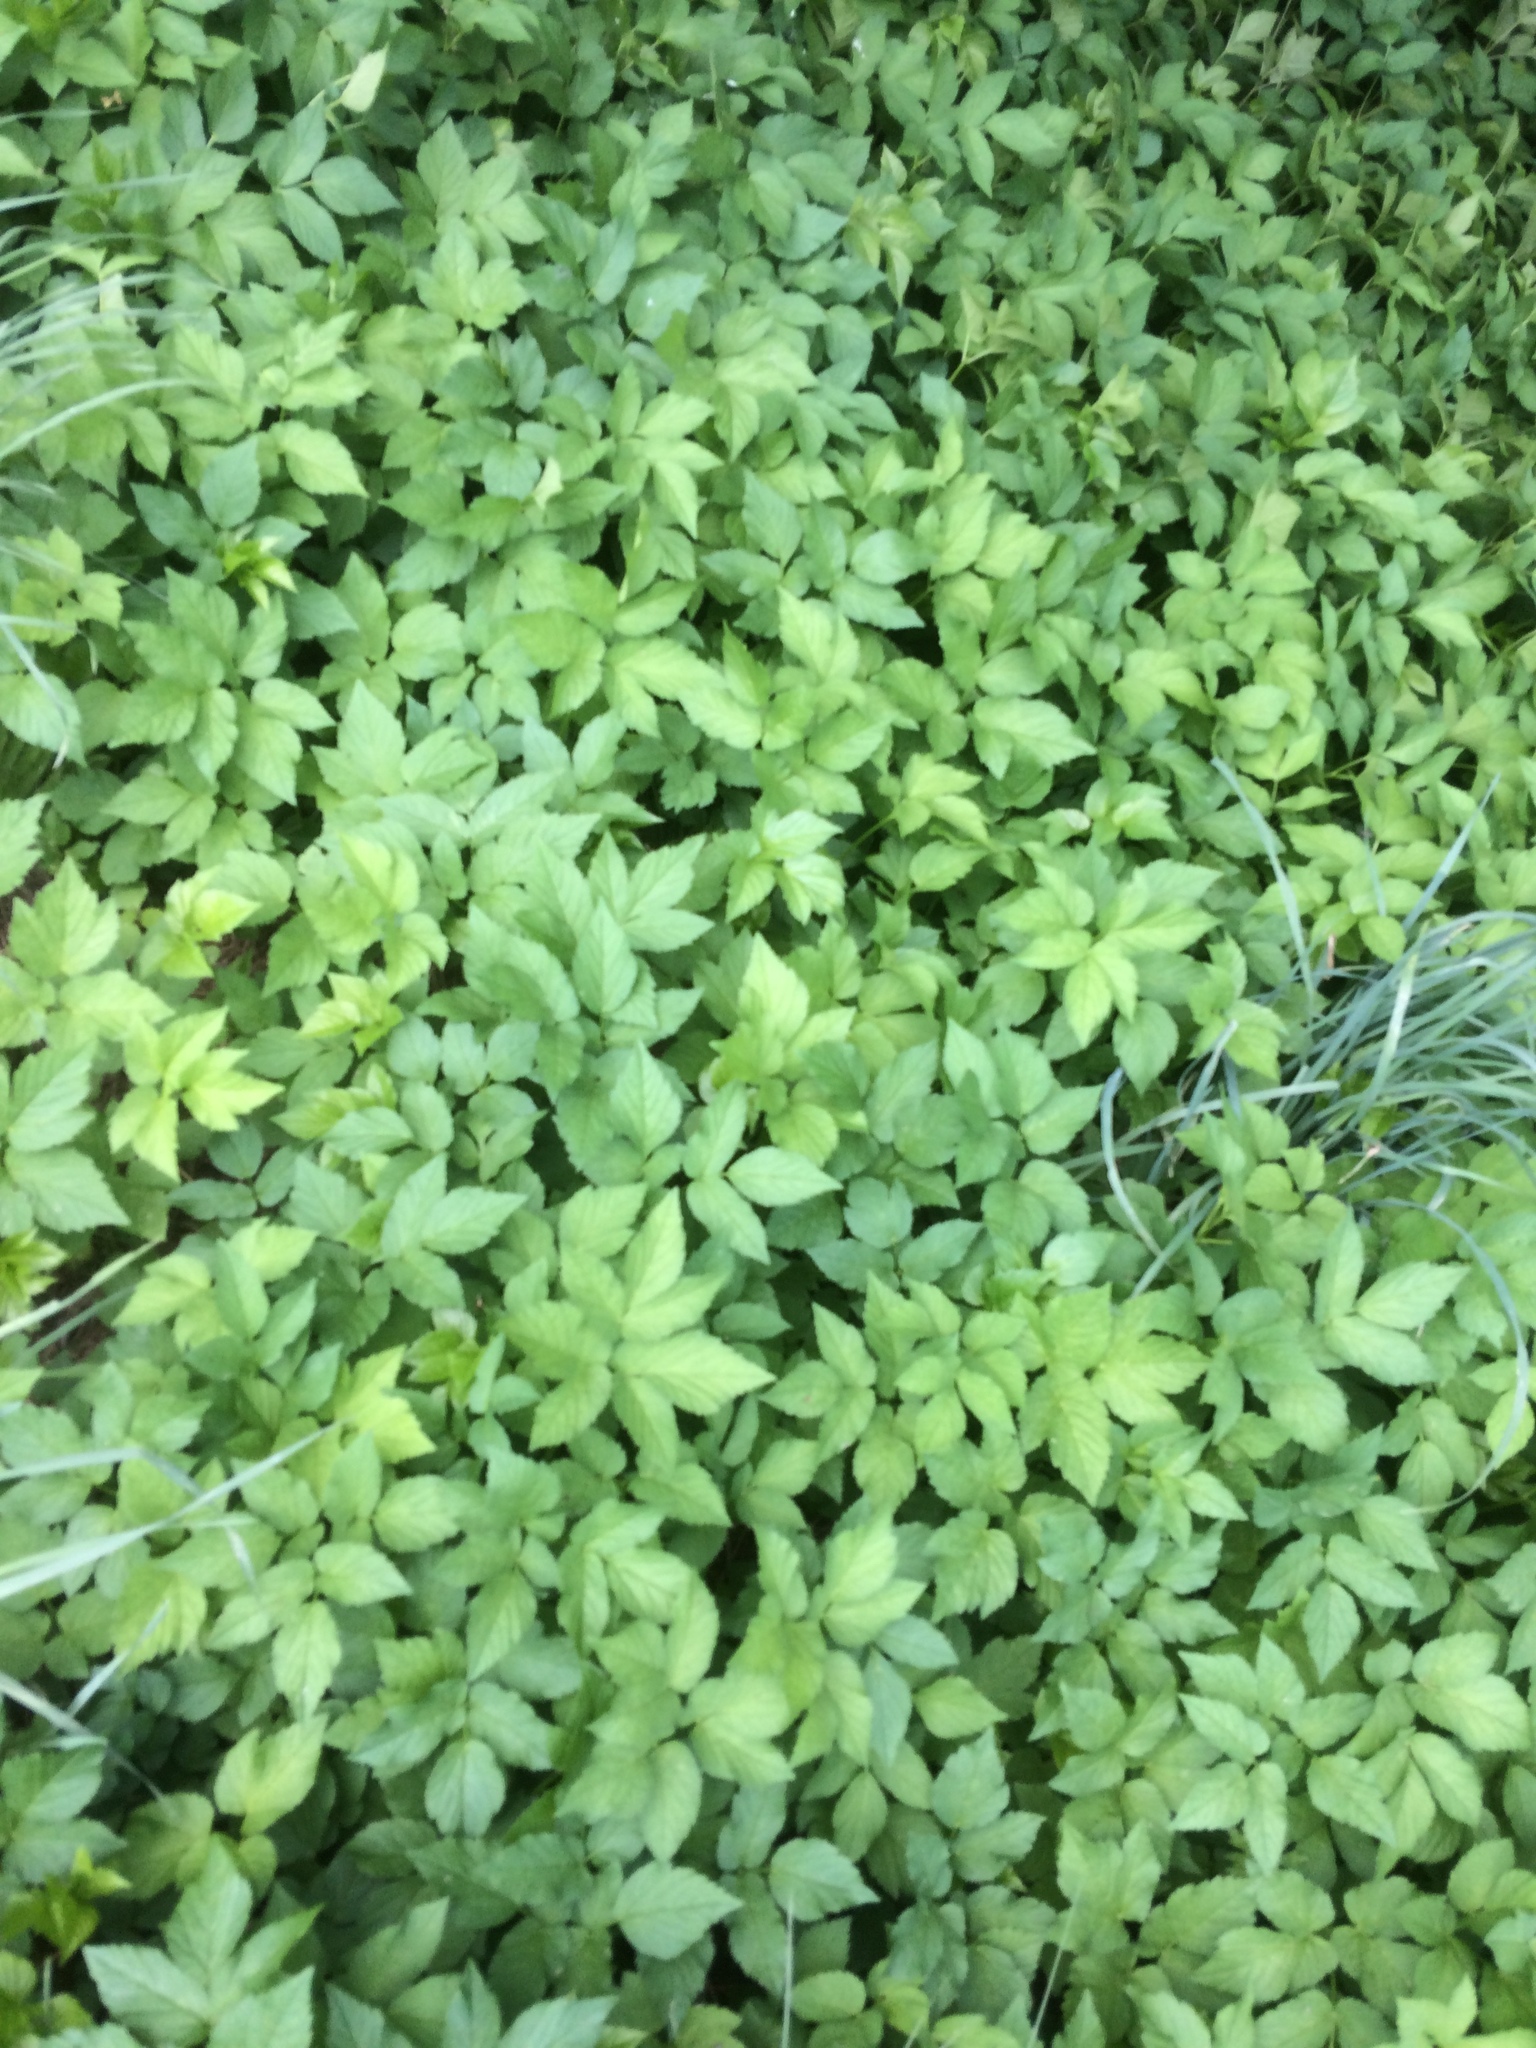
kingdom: Plantae
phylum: Tracheophyta
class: Magnoliopsida
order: Apiales
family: Apiaceae
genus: Aegopodium
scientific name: Aegopodium podagraria
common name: Ground-elder
